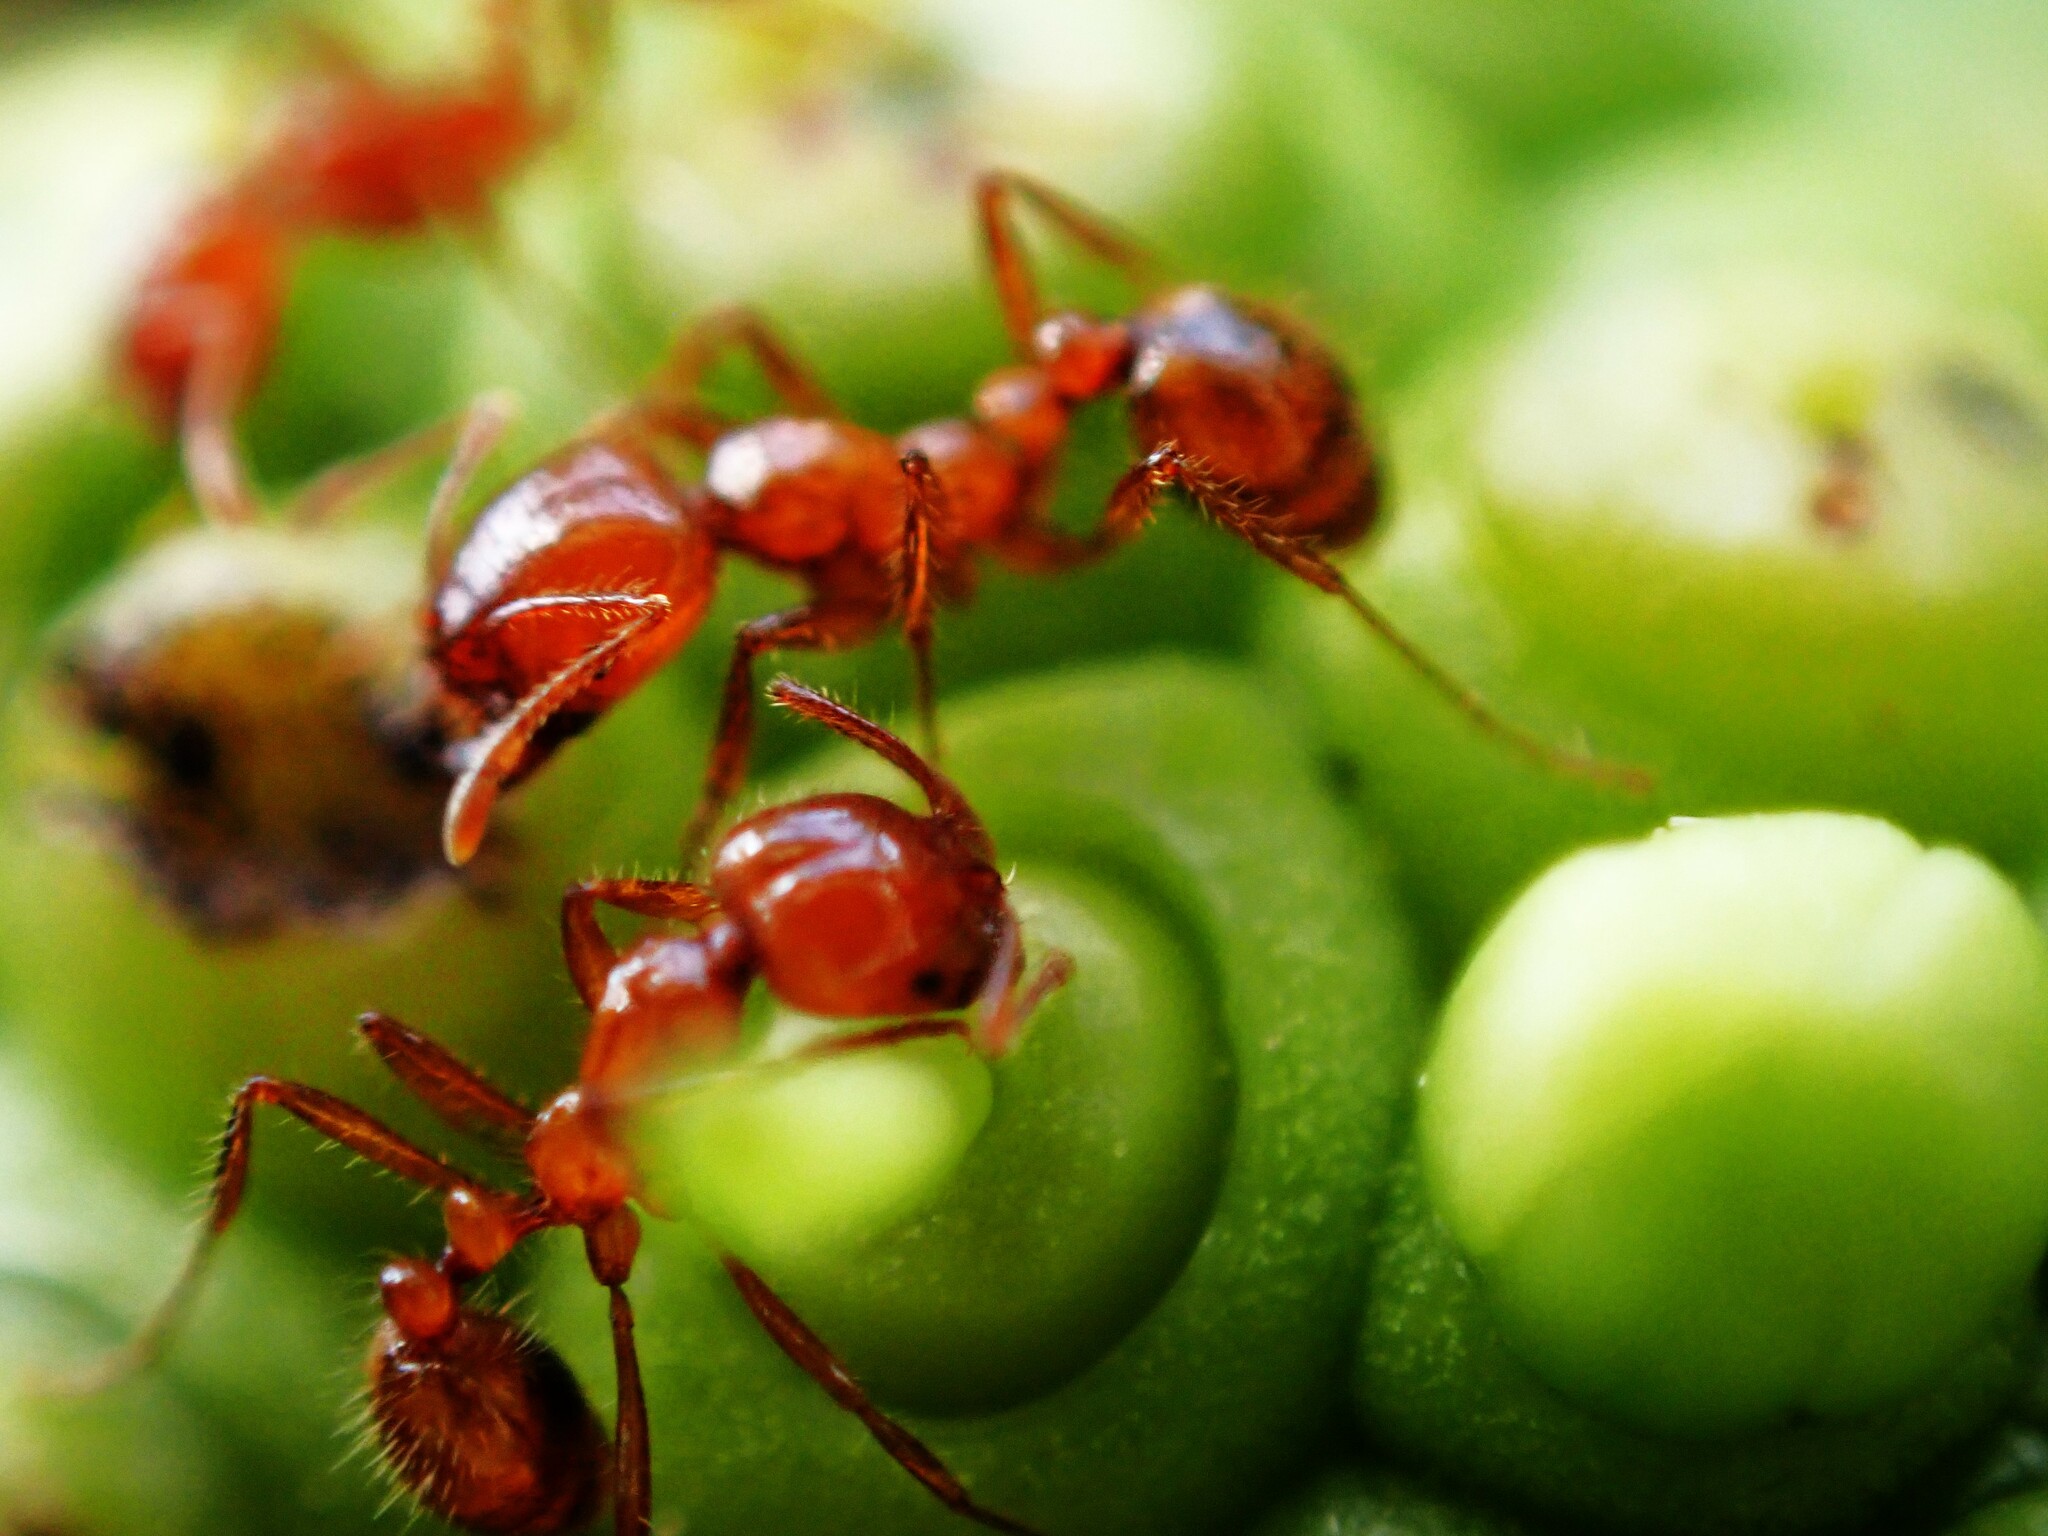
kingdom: Animalia
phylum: Arthropoda
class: Insecta
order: Hymenoptera
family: Formicidae
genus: Solenopsis
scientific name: Solenopsis geminata
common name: Tropical fire ant
